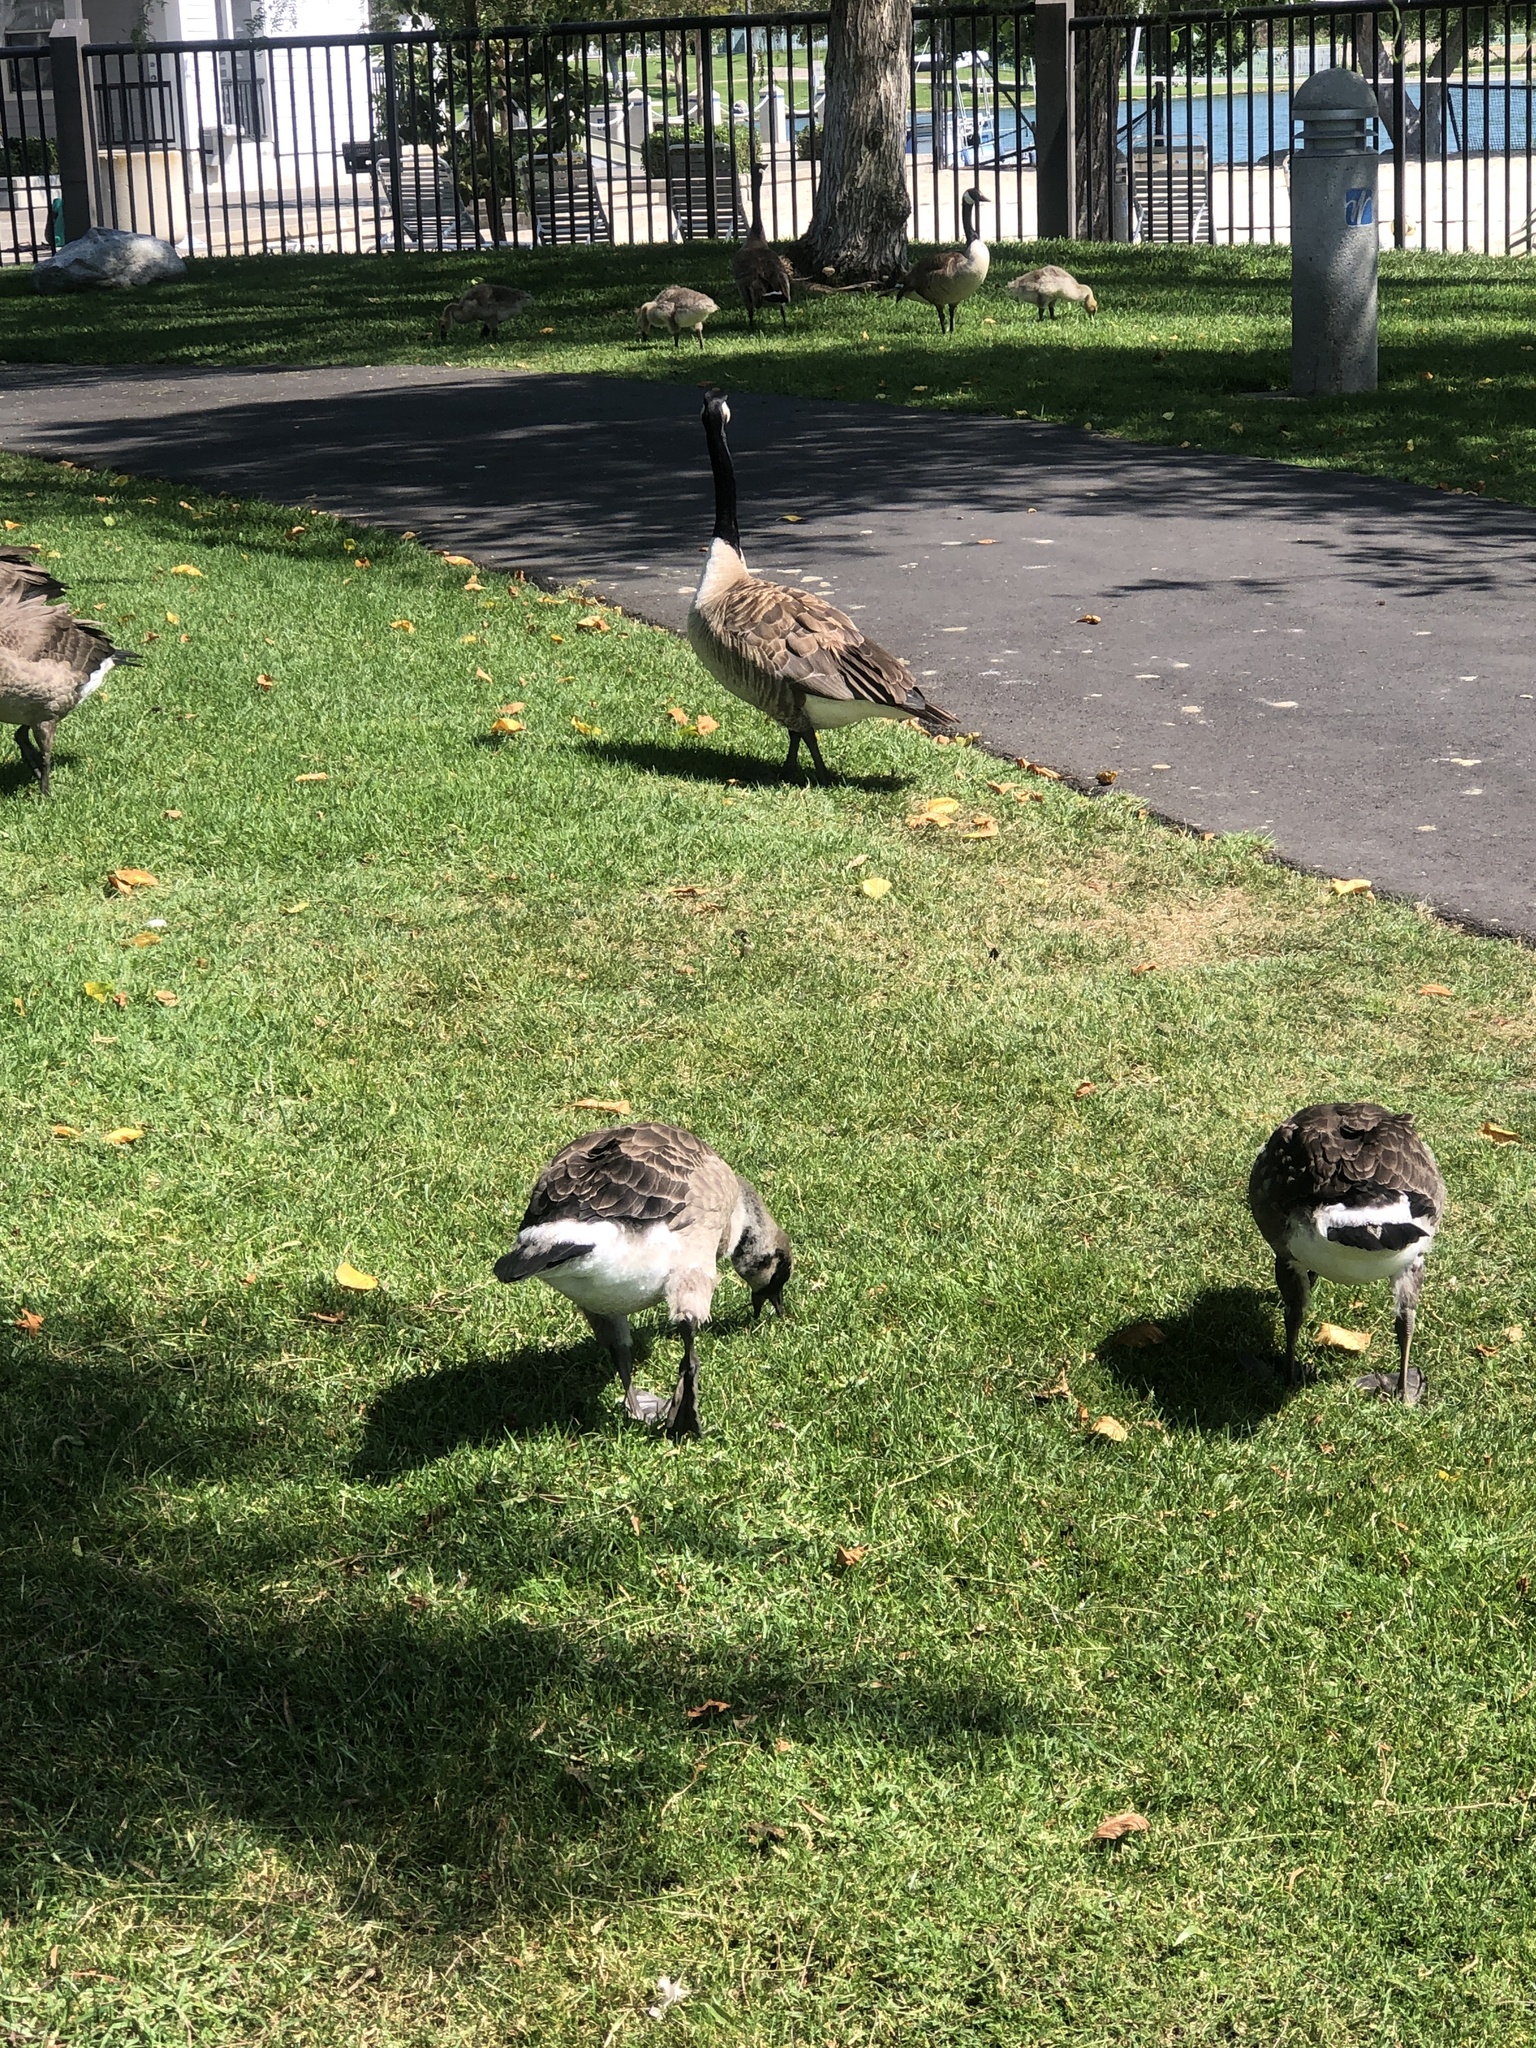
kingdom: Animalia
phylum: Chordata
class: Aves
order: Anseriformes
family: Anatidae
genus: Branta
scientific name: Branta canadensis
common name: Canada goose
